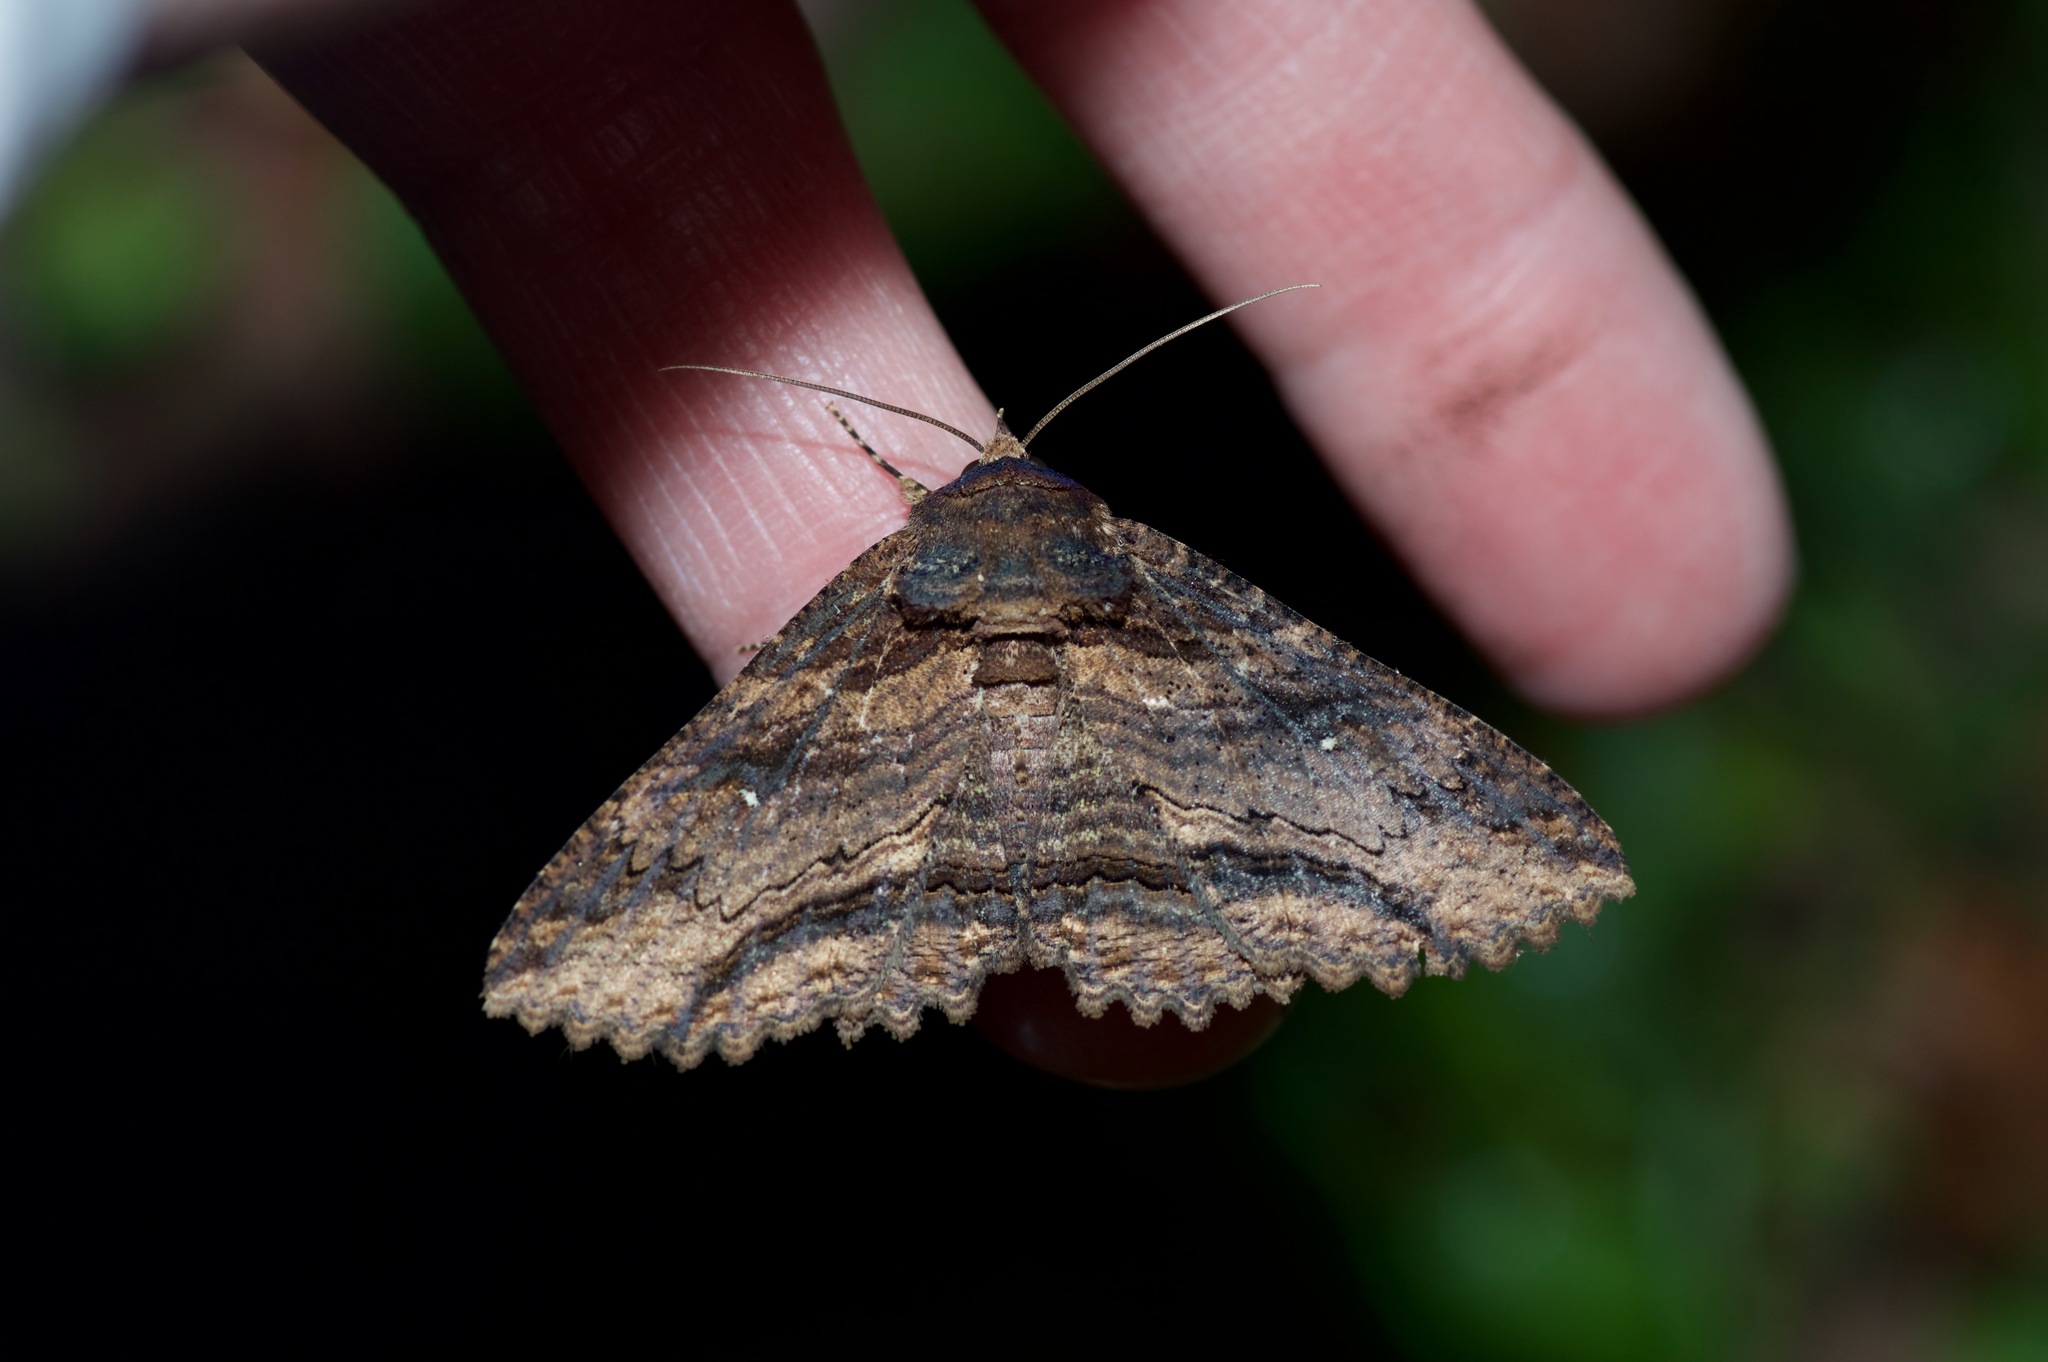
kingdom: Animalia
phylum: Arthropoda
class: Insecta
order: Lepidoptera
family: Erebidae
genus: Zale
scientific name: Zale lunata
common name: Lunate zale moth
